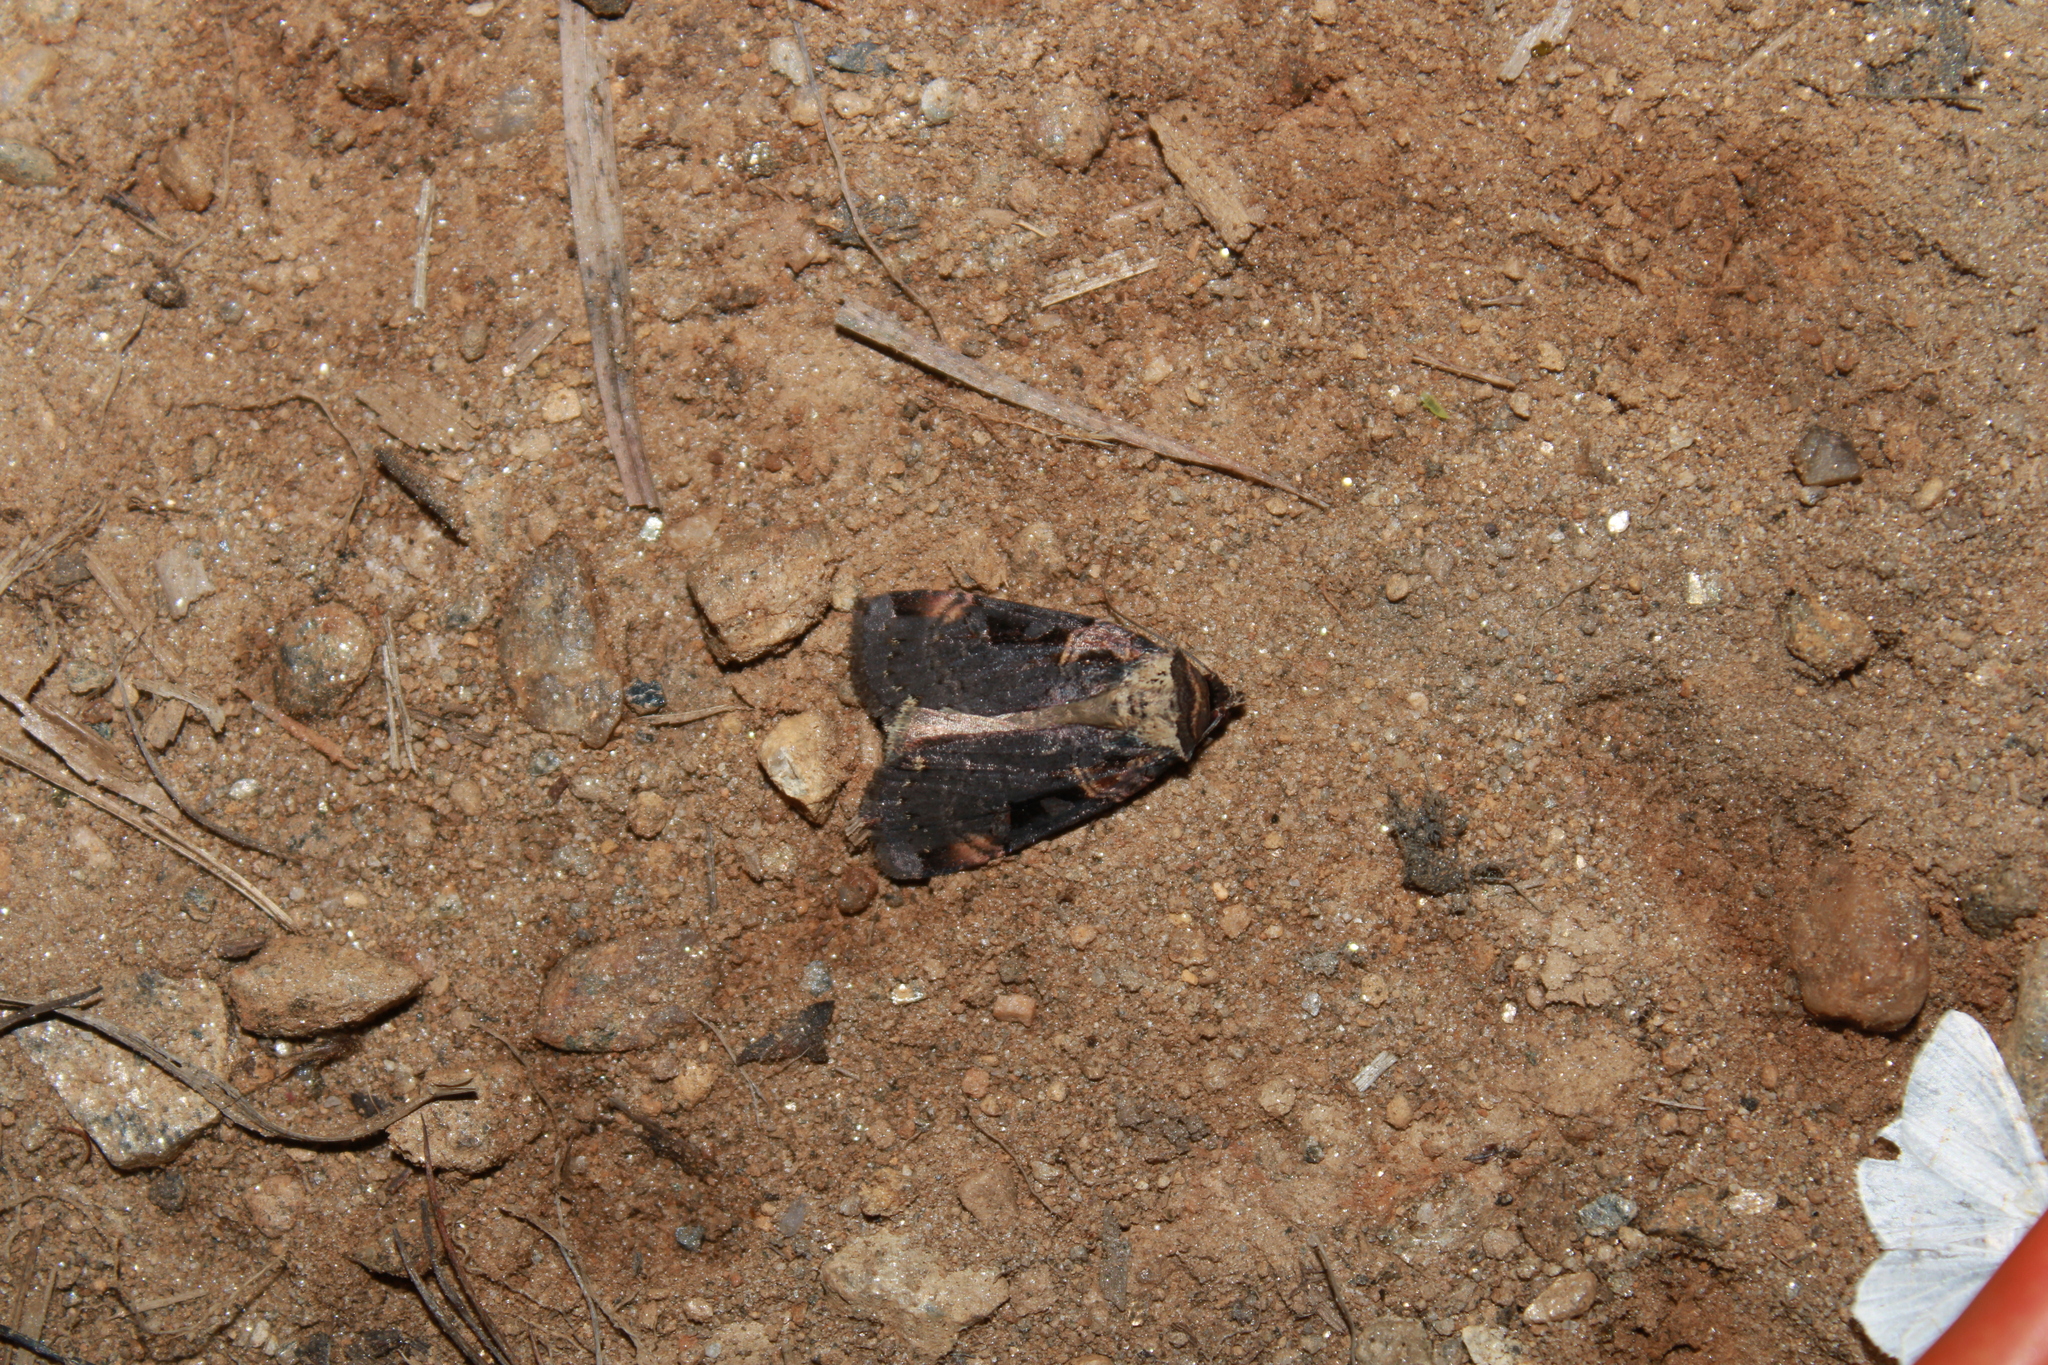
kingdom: Animalia
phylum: Arthropoda
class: Insecta
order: Lepidoptera
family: Noctuidae
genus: Pseudohermonassa
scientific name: Pseudohermonassa bicarnea
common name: Pink spotted dart
